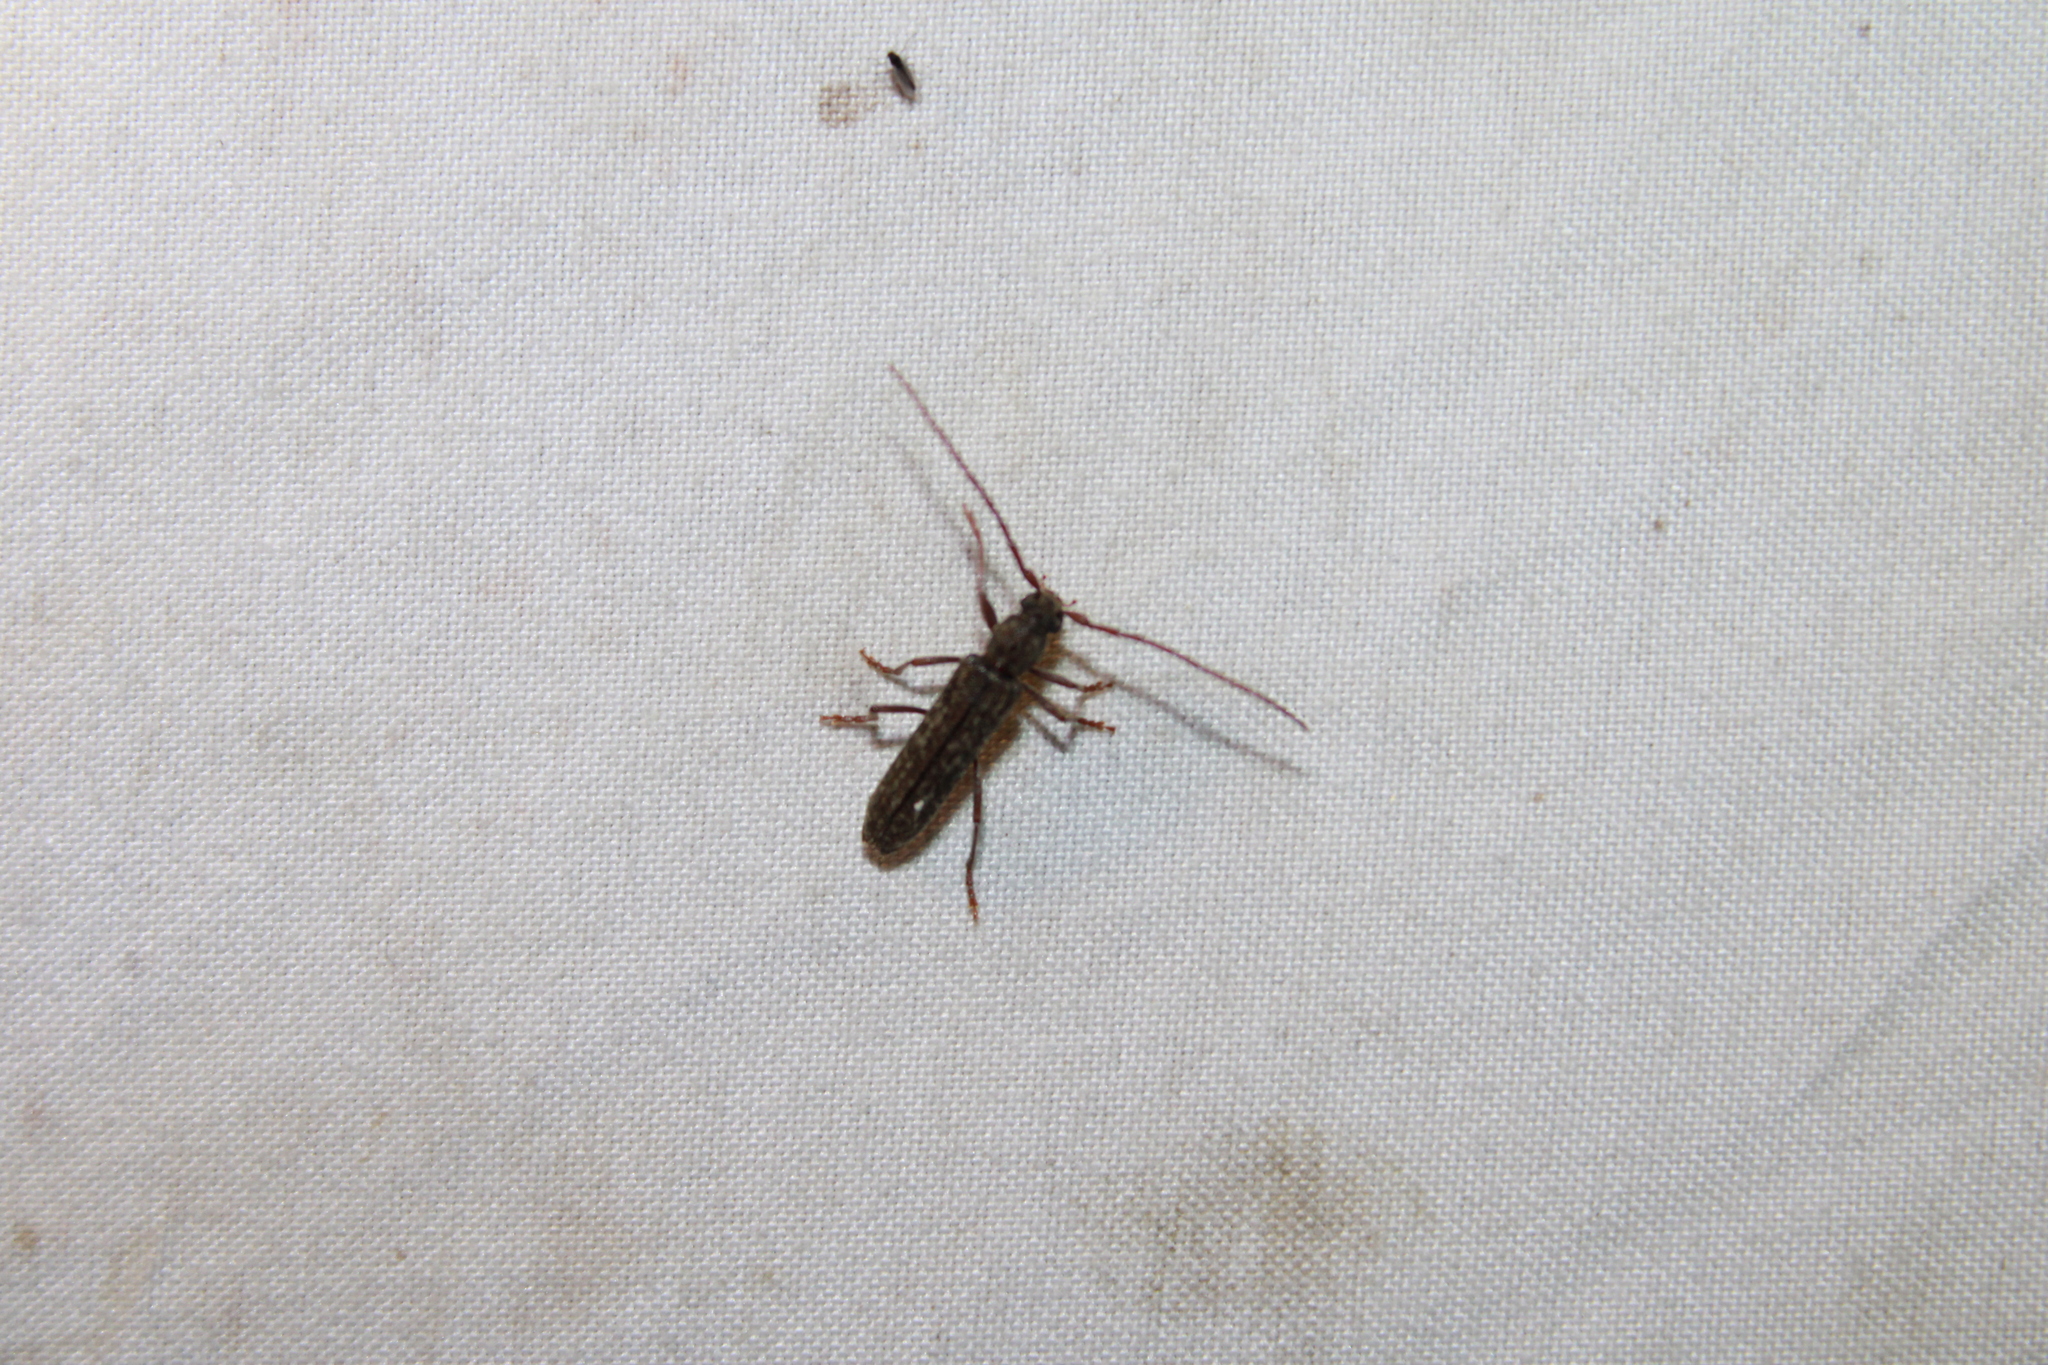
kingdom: Animalia
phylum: Arthropoda
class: Insecta
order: Coleoptera
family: Cerambycidae
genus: Anelaphus
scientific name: Anelaphus villosus
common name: Twig pruner
